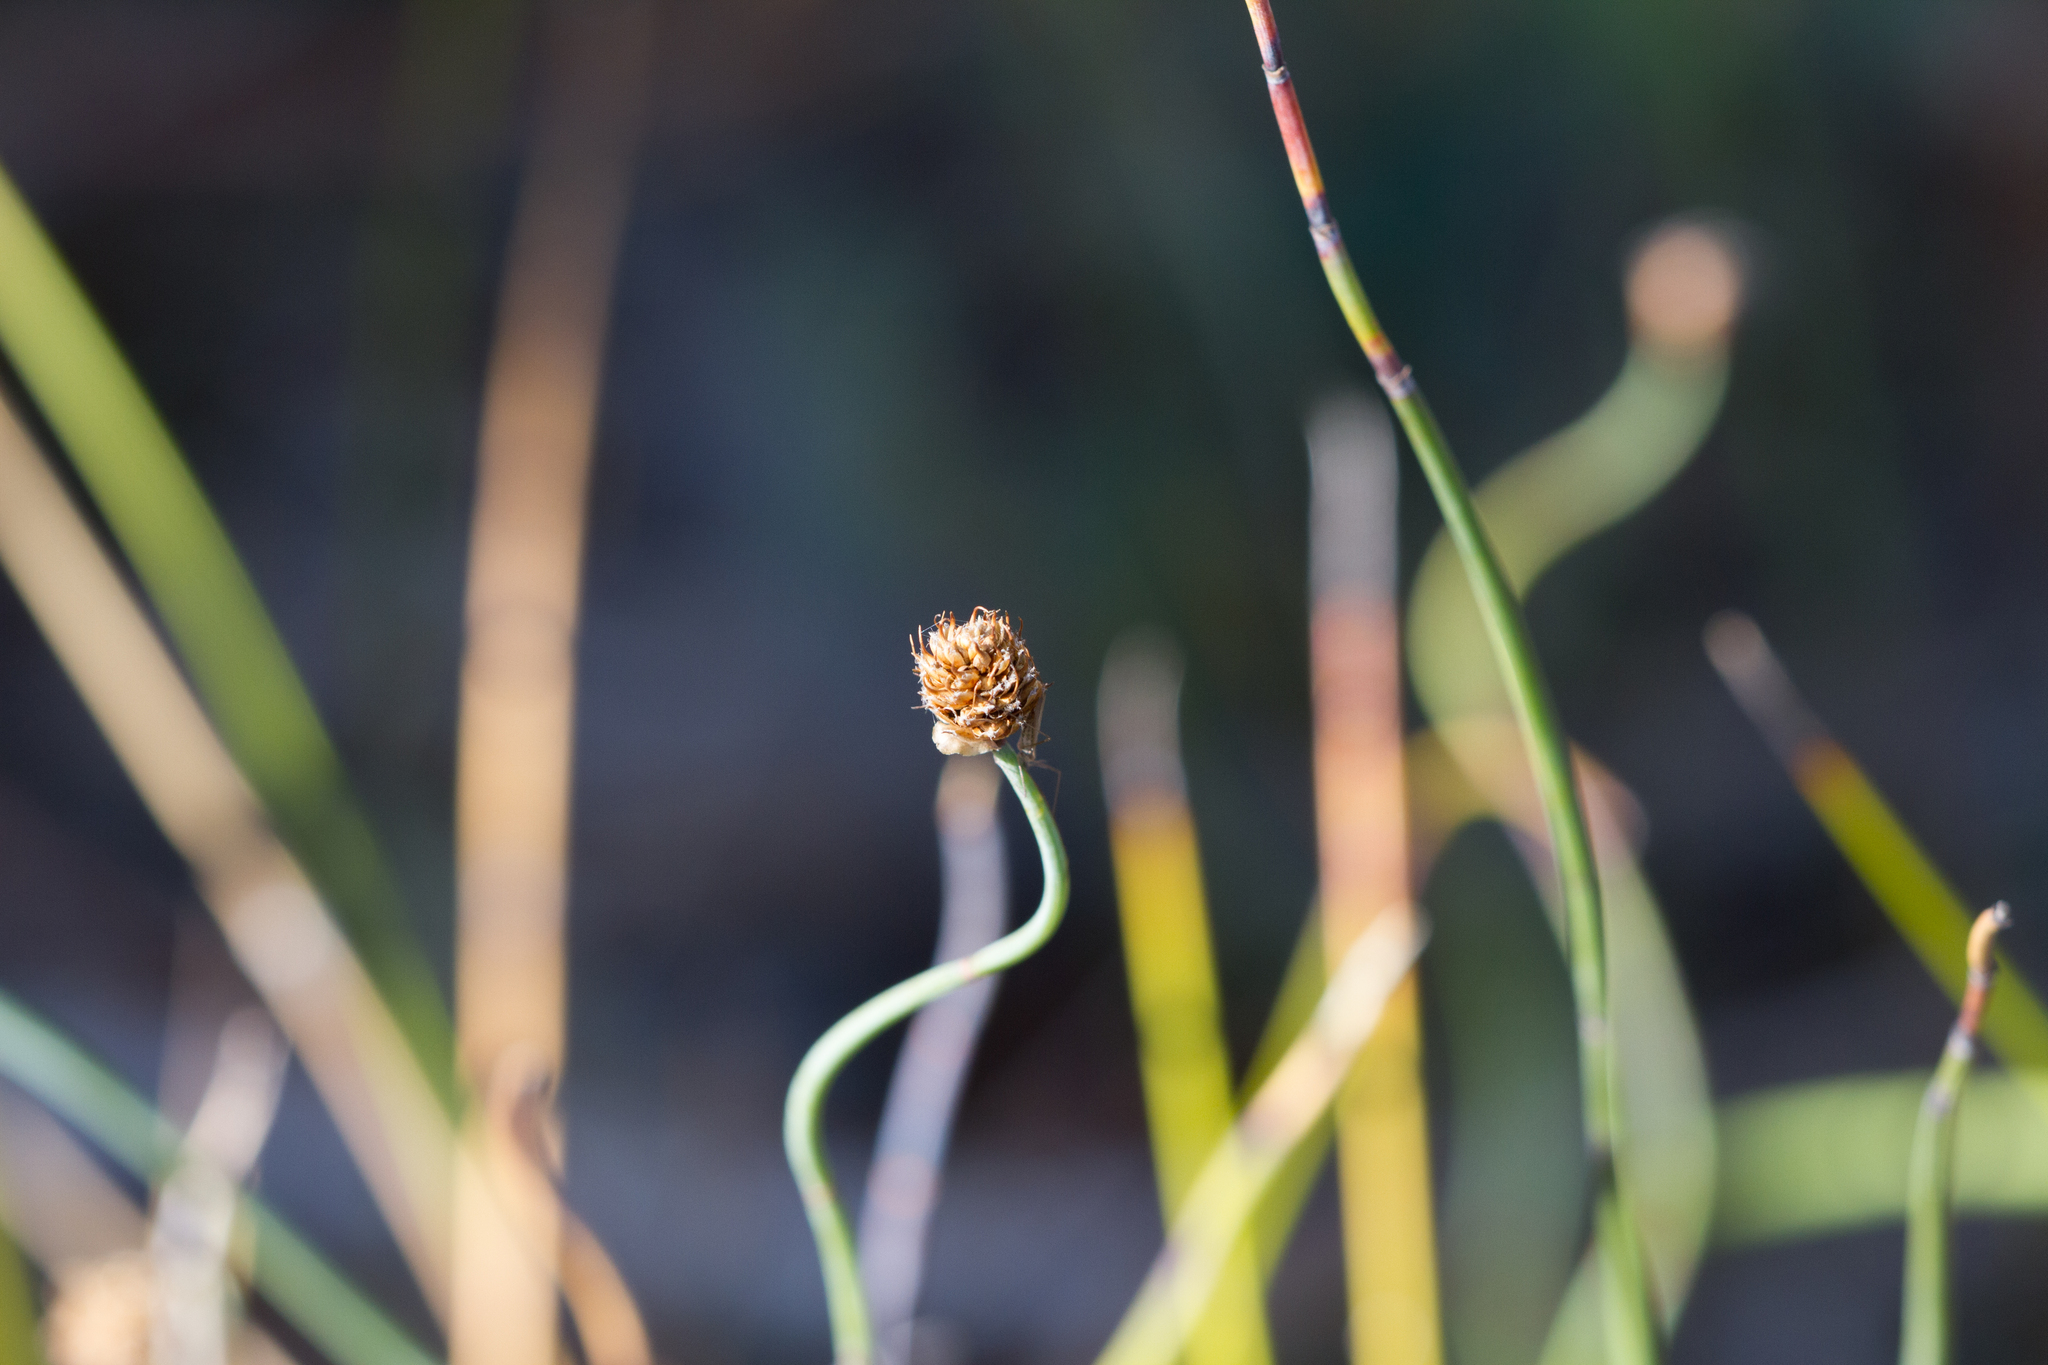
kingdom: Plantae
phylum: Tracheophyta
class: Liliopsida
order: Poales
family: Restionaceae
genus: Lepidobolus
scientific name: Lepidobolus drapetocoleus
